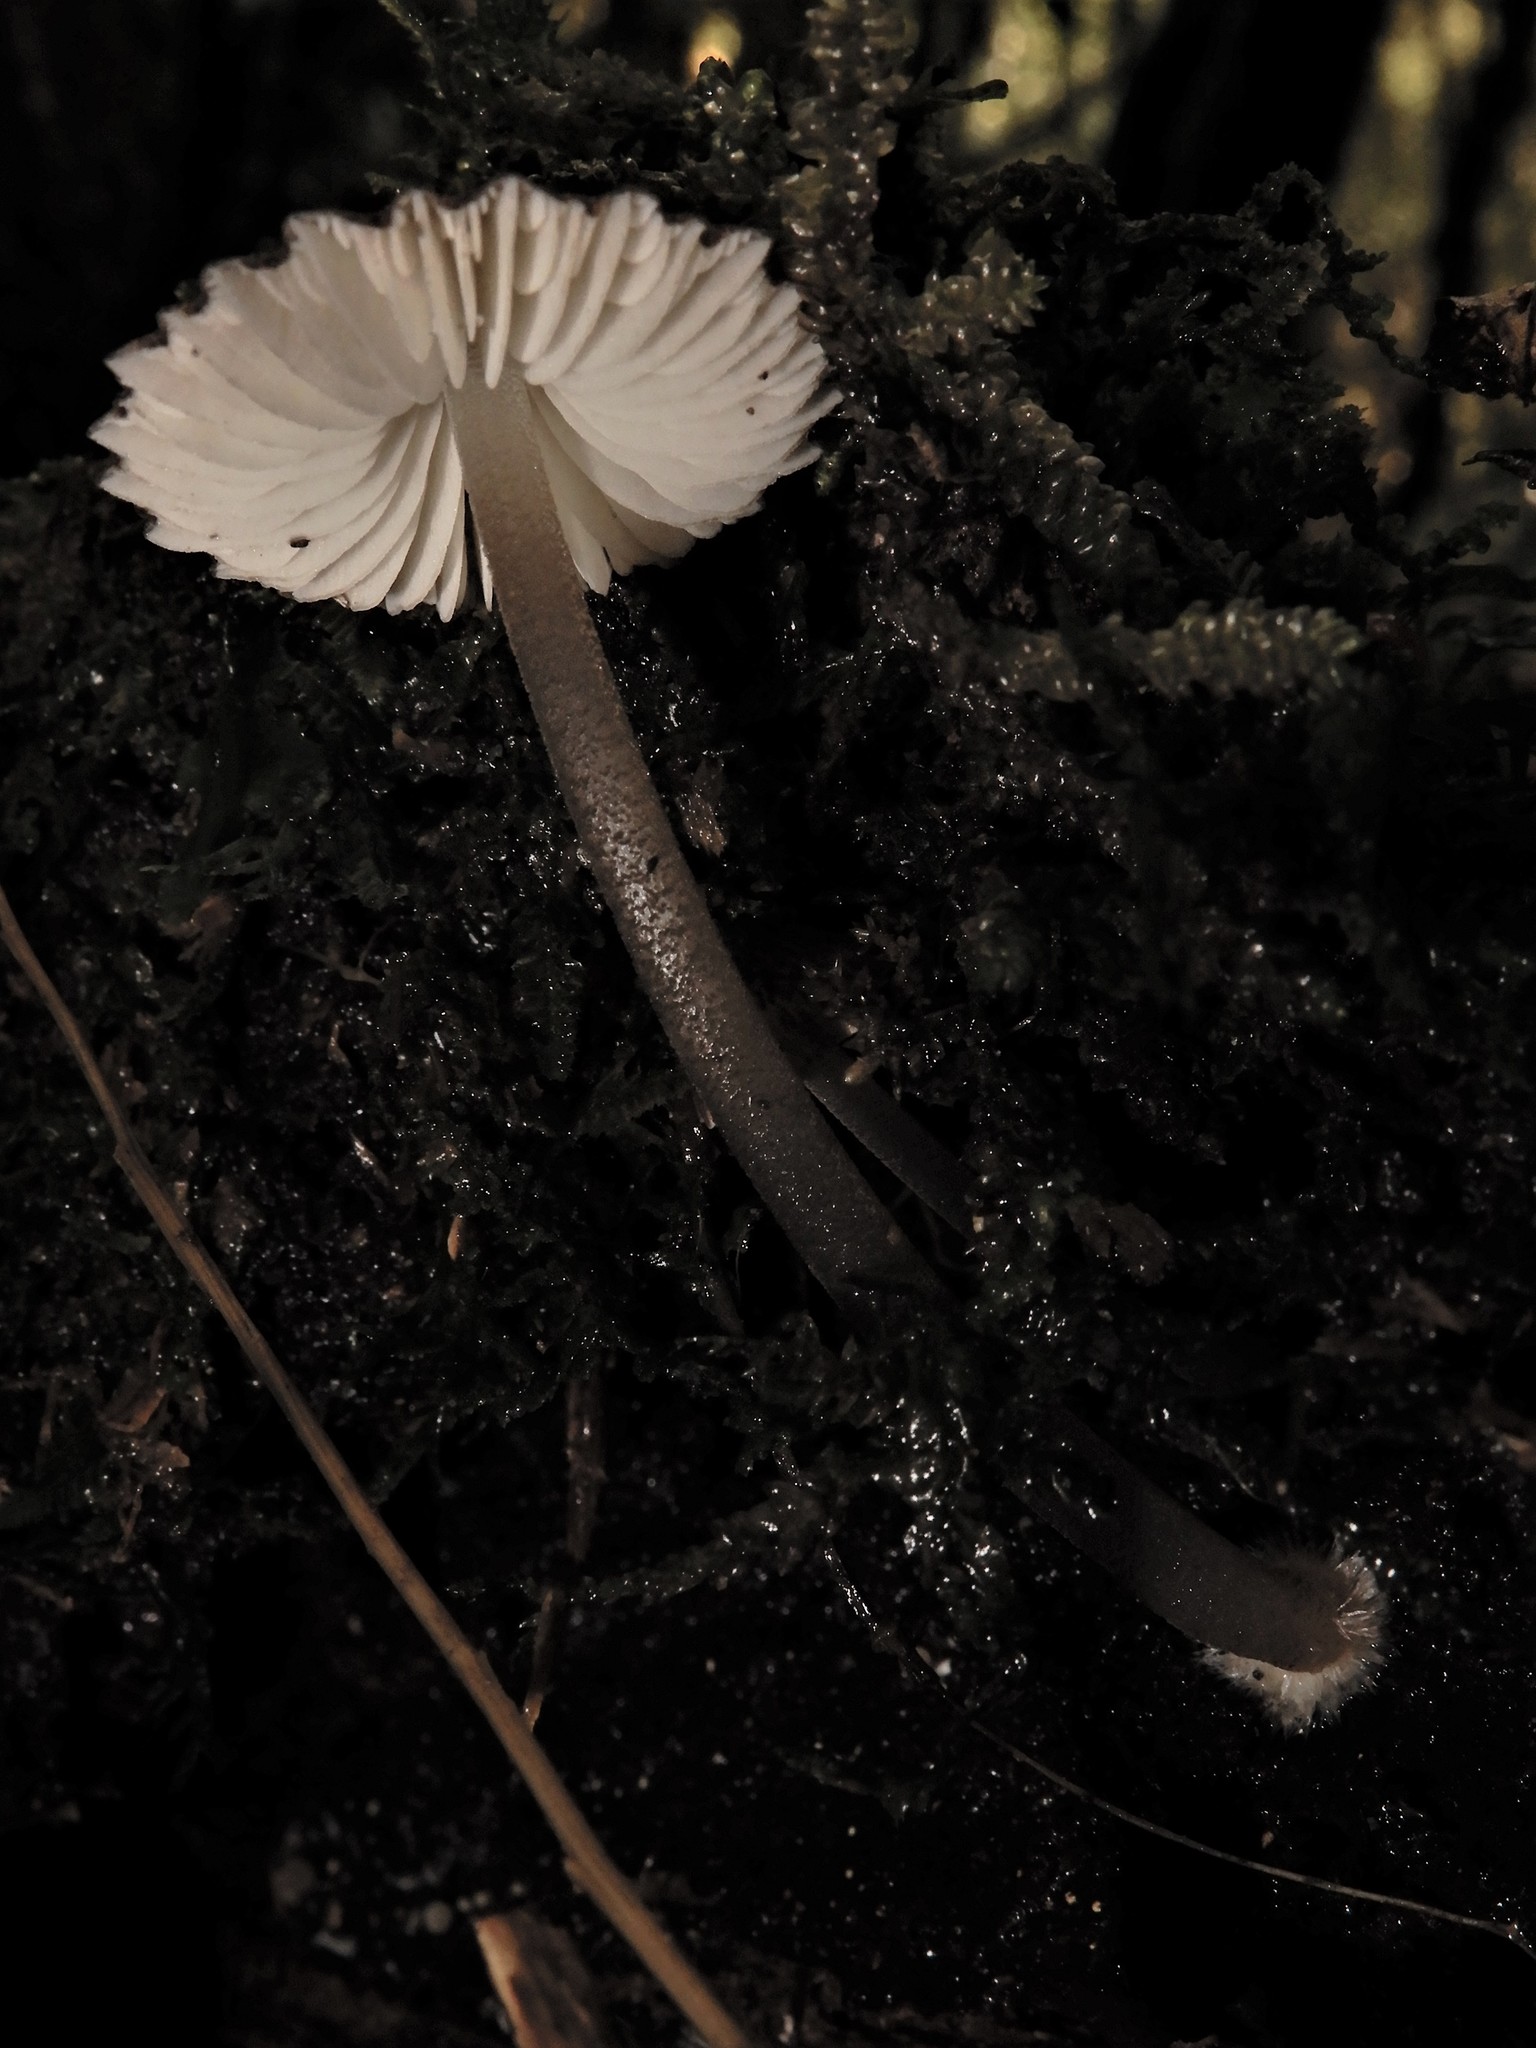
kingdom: Fungi
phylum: Basidiomycota
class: Agaricomycetes
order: Agaricales
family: Porotheleaceae
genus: Pseudohydropus
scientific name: Pseudohydropus parafunebris
